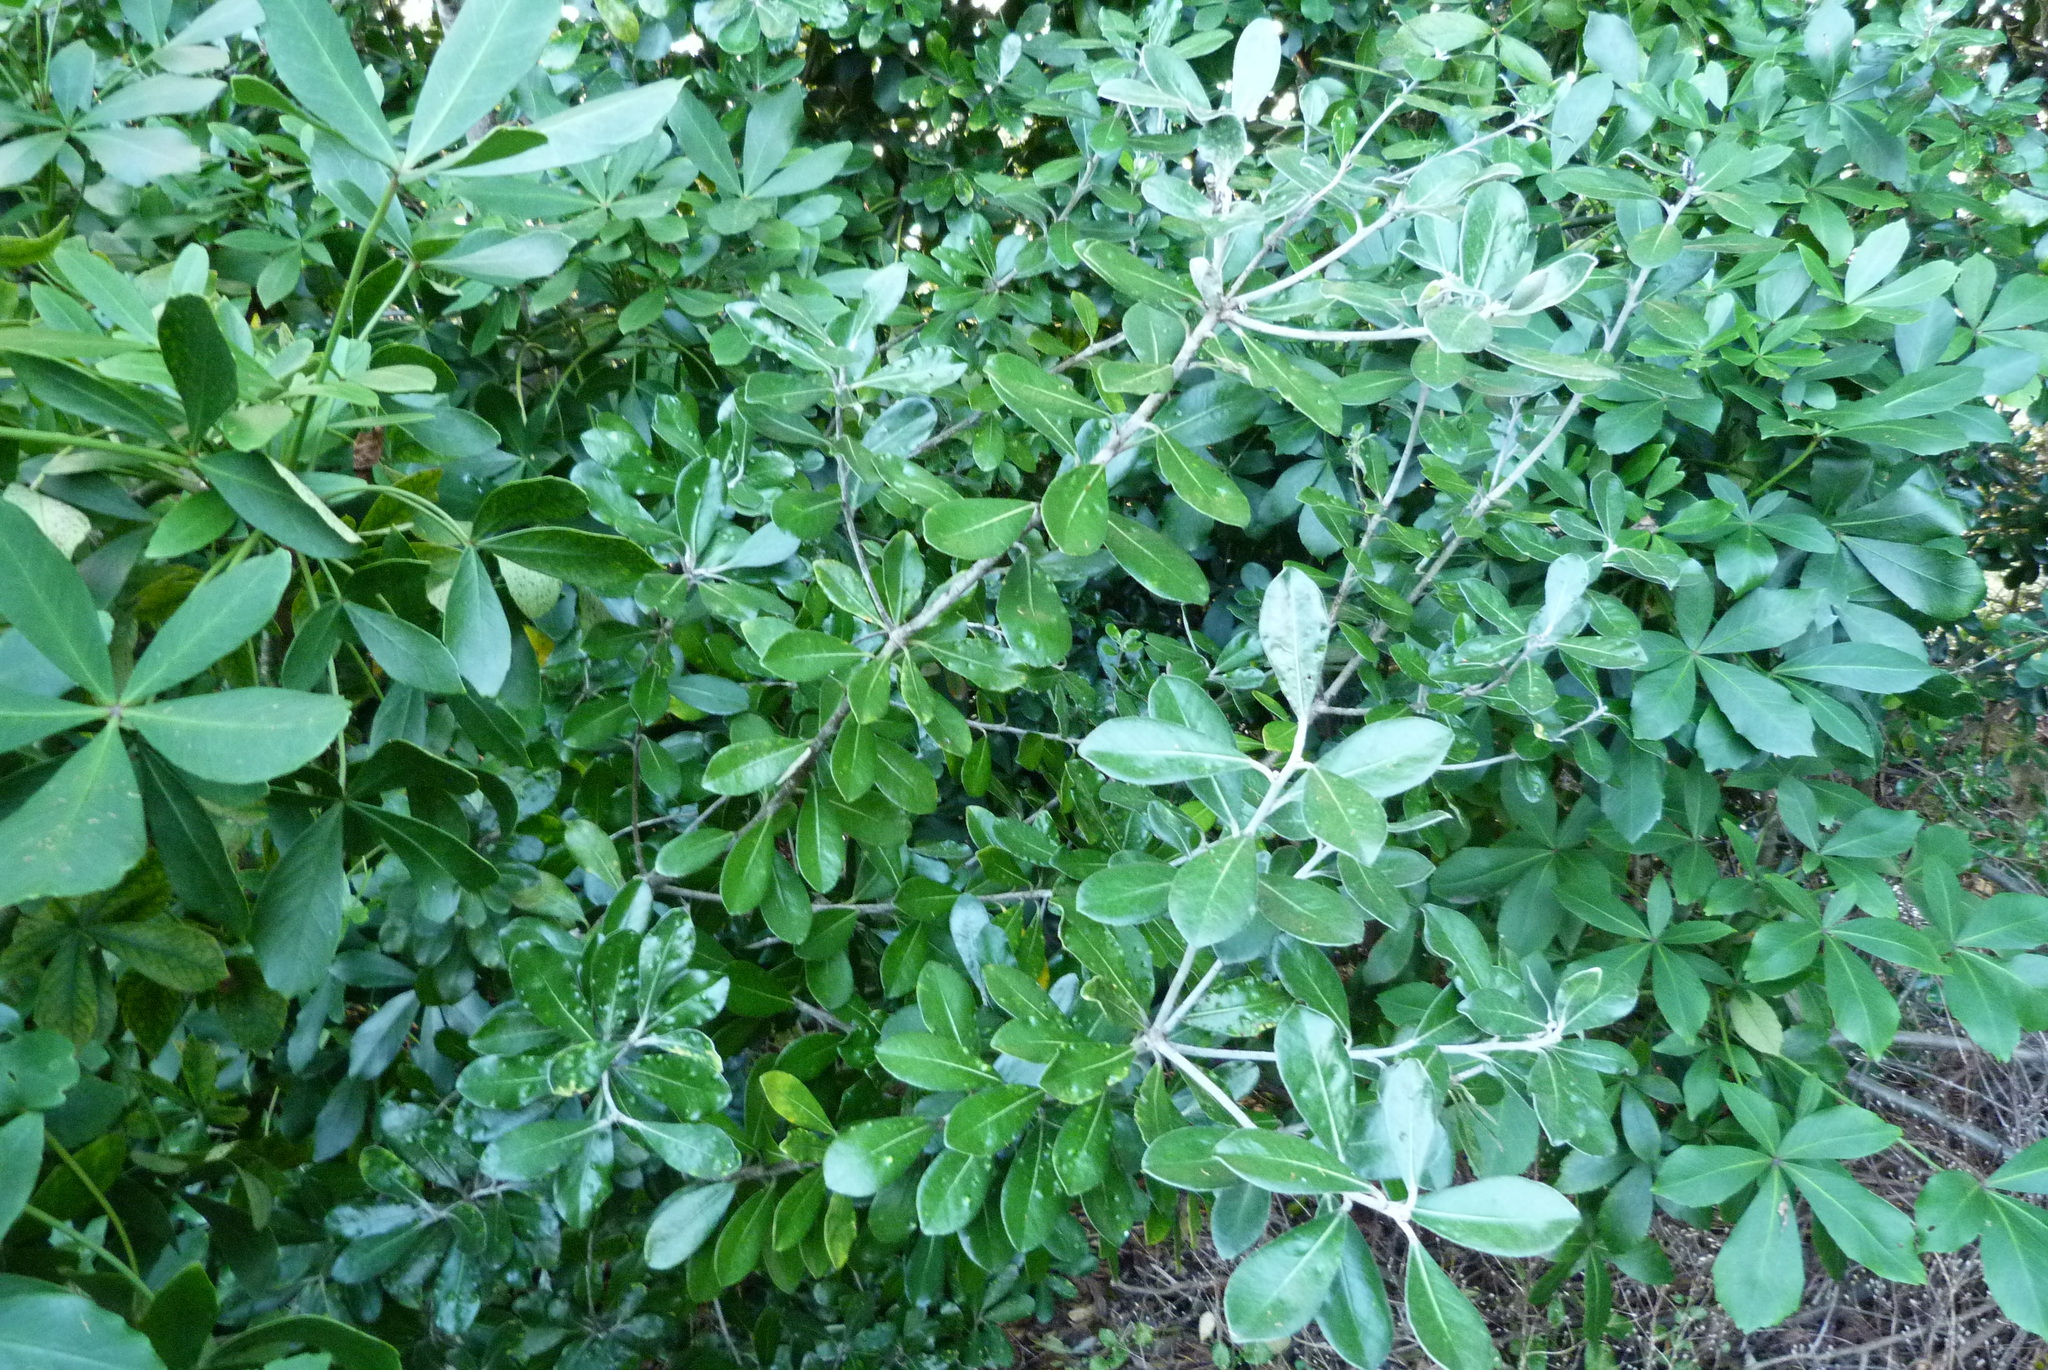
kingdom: Plantae
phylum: Tracheophyta
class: Magnoliopsida
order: Apiales
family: Pittosporaceae
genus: Pittosporum
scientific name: Pittosporum crassifolium
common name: Karo
